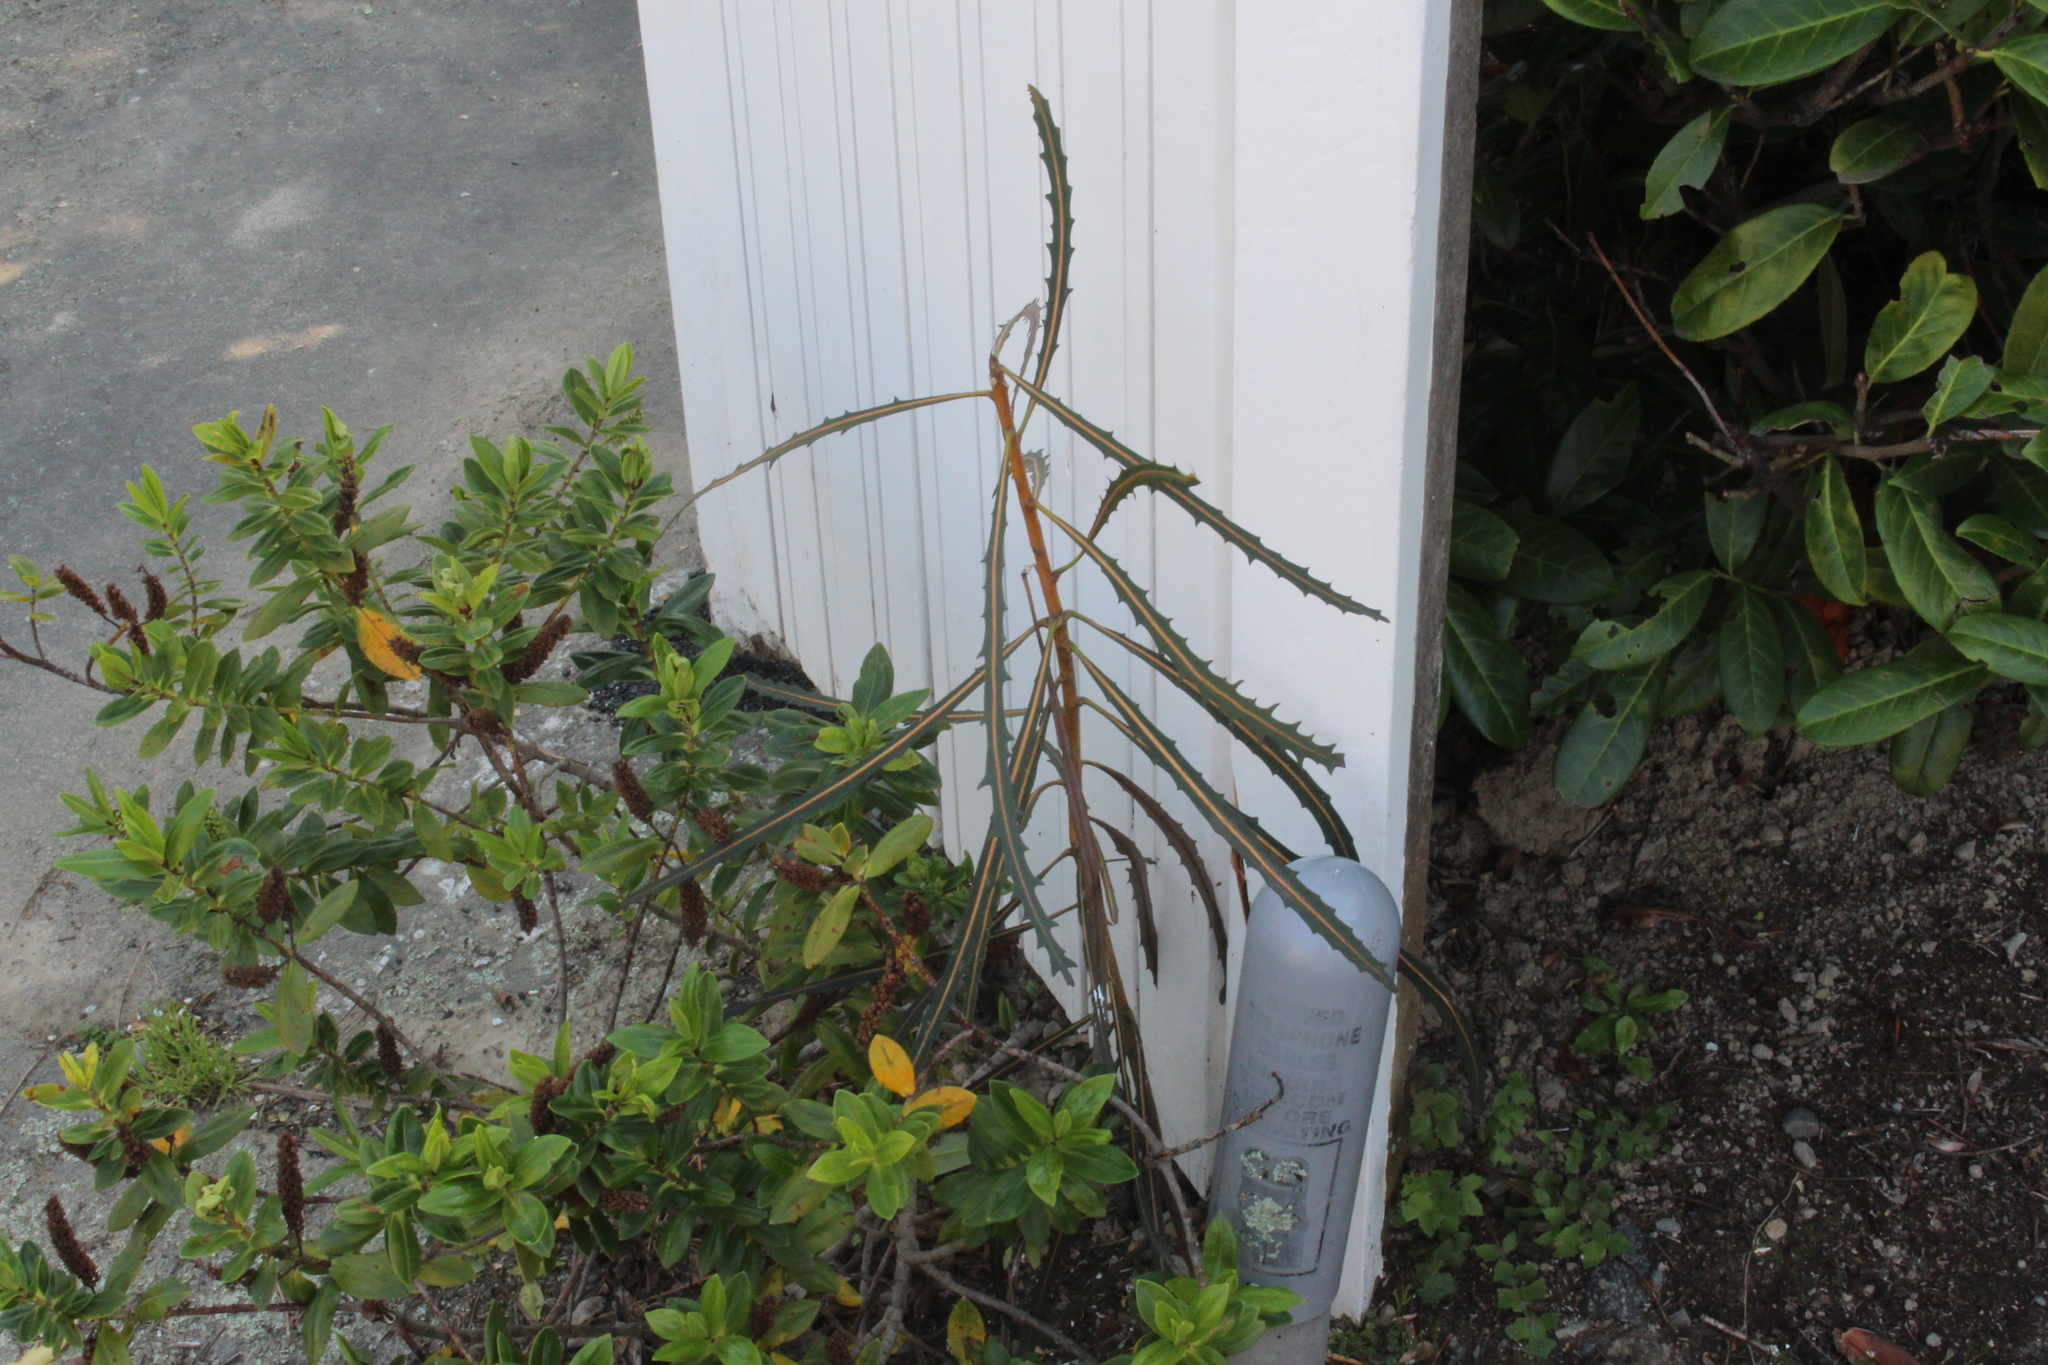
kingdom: Plantae
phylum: Tracheophyta
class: Magnoliopsida
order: Apiales
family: Araliaceae
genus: Pseudopanax
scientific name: Pseudopanax crassifolius
